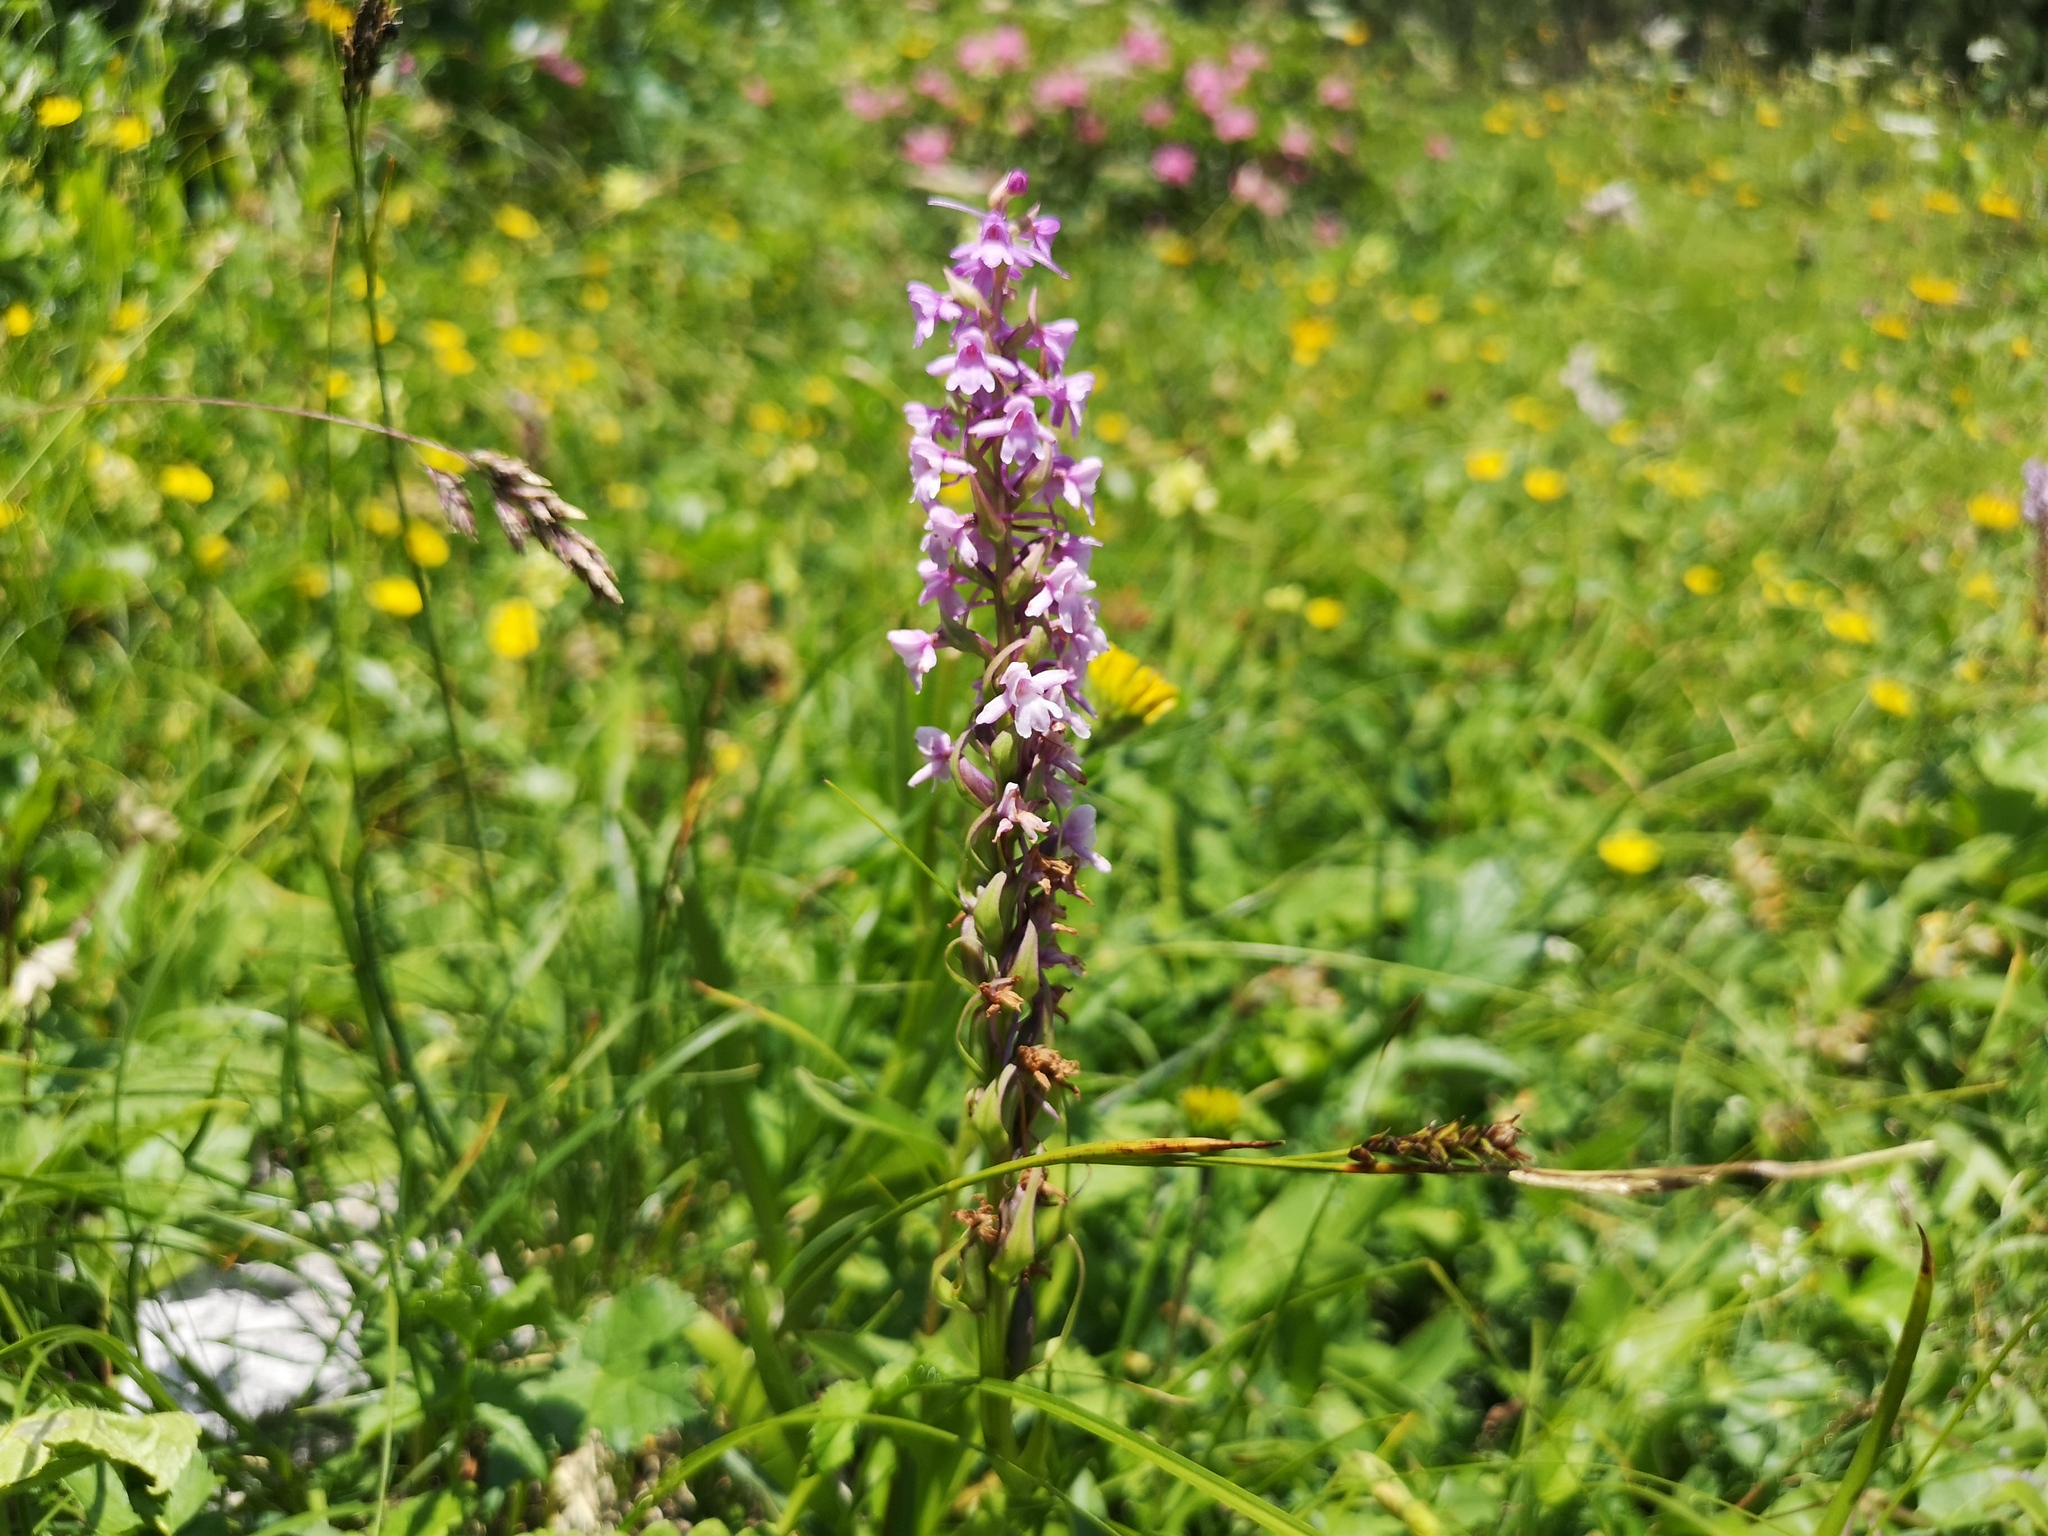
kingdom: Plantae
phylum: Tracheophyta
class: Liliopsida
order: Asparagales
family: Orchidaceae
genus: Gymnadenia
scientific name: Gymnadenia conopsea
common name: Fragrant orchid
